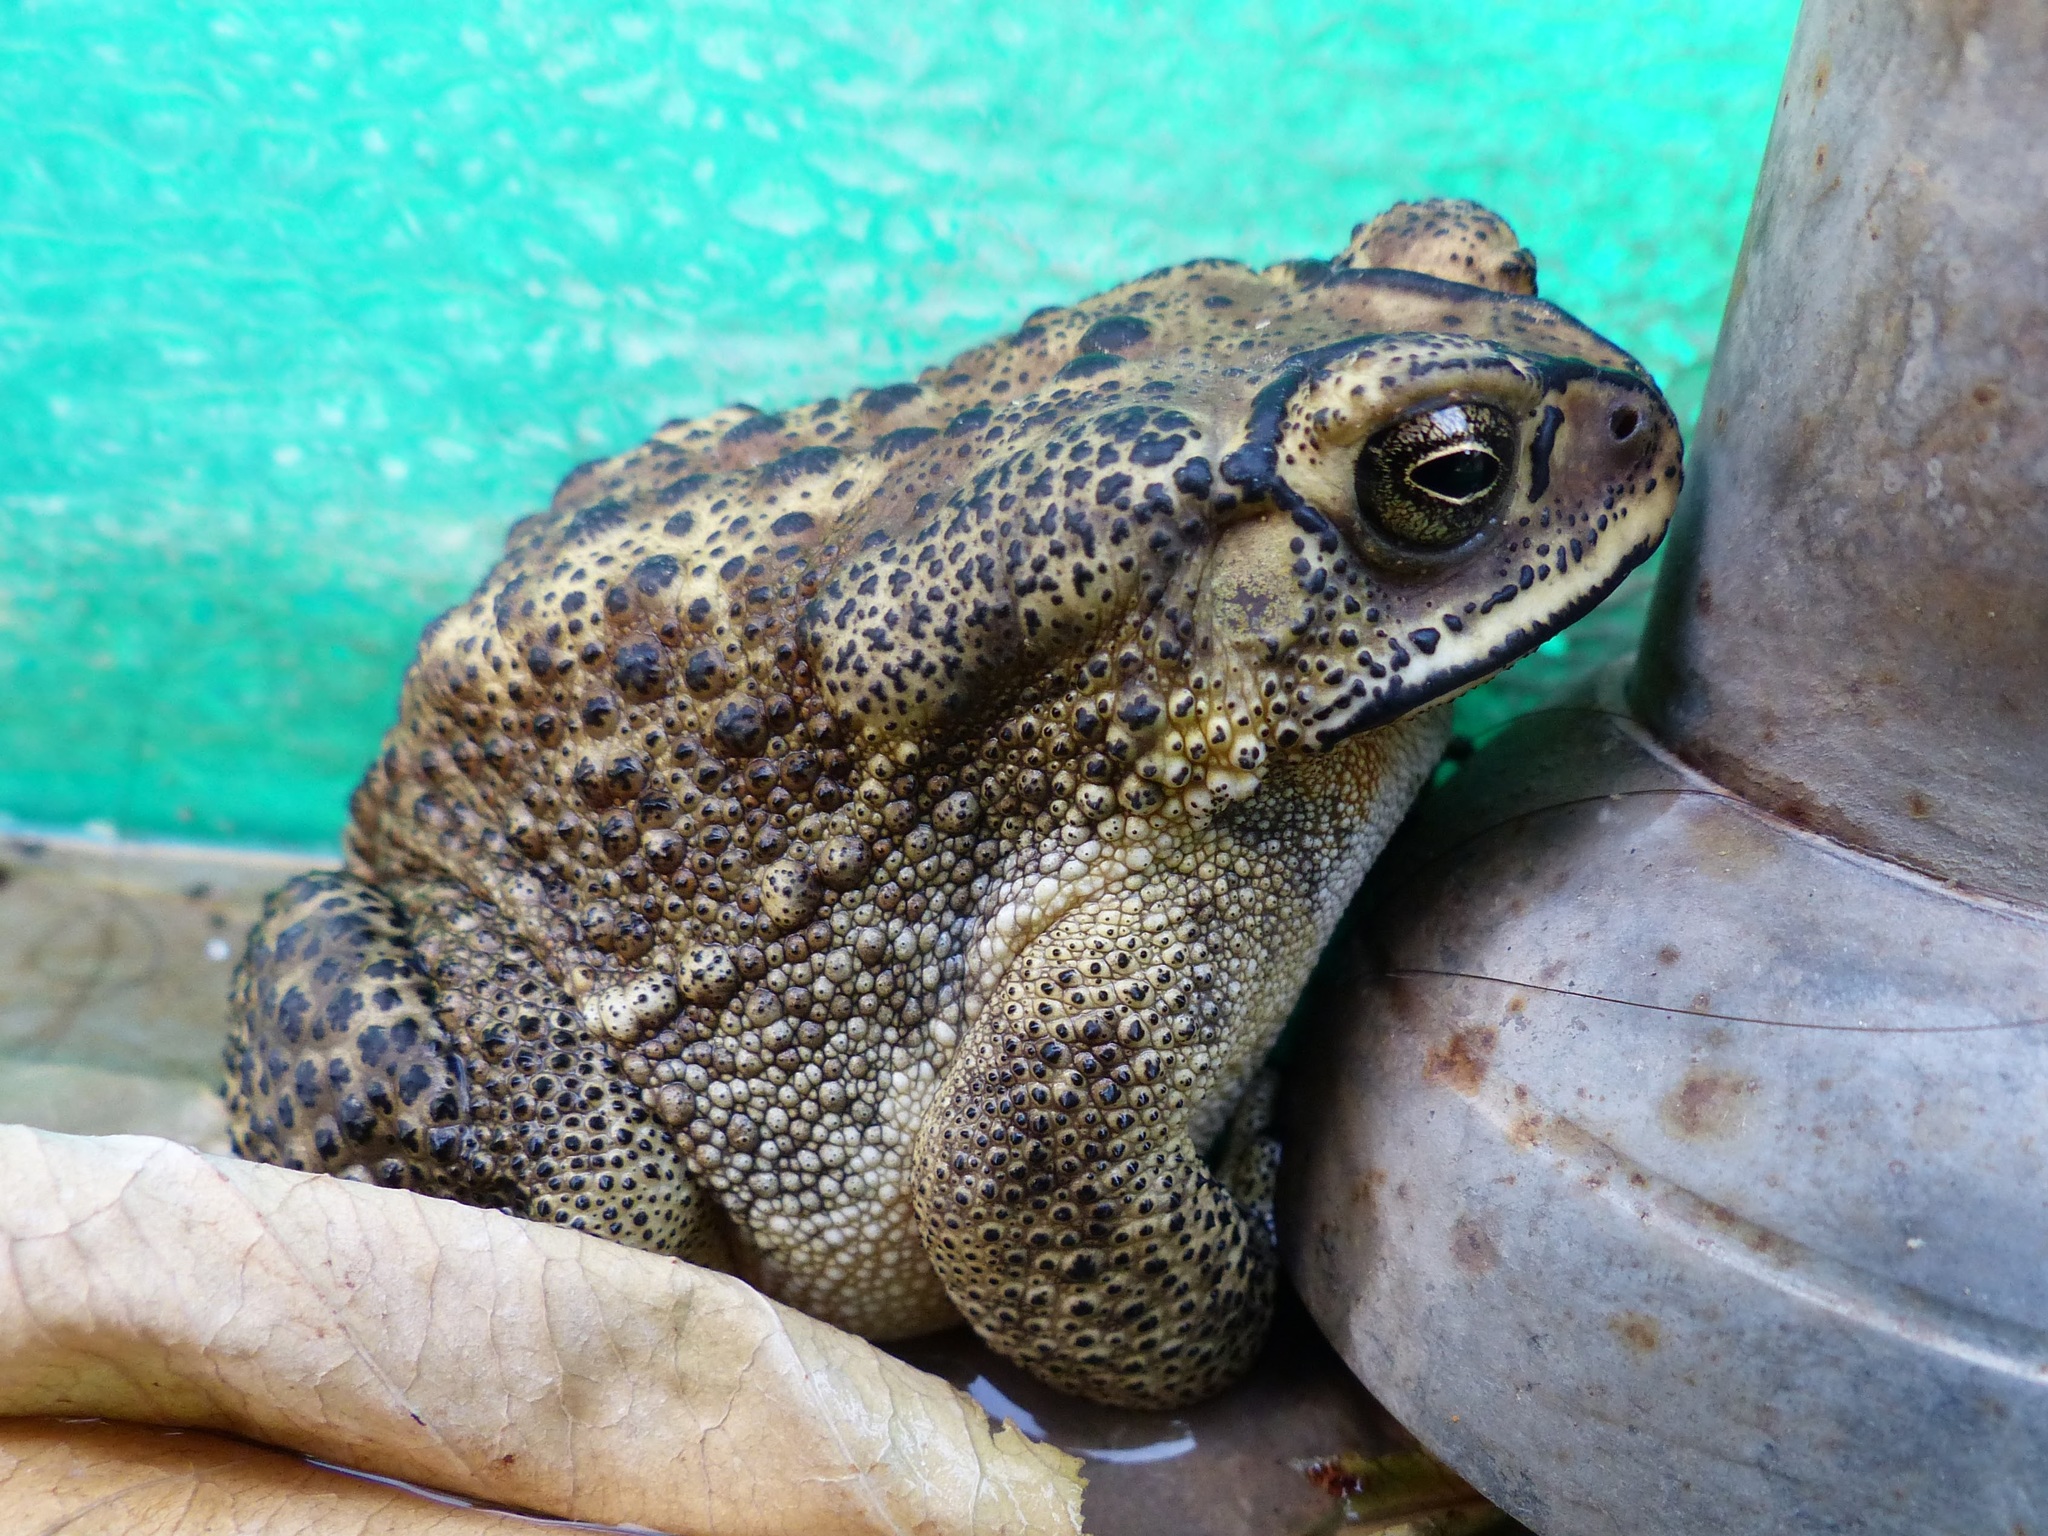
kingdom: Animalia
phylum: Chordata
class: Amphibia
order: Anura
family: Bufonidae
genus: Duttaphrynus
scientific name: Duttaphrynus melanostictus
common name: Common sunda toad
